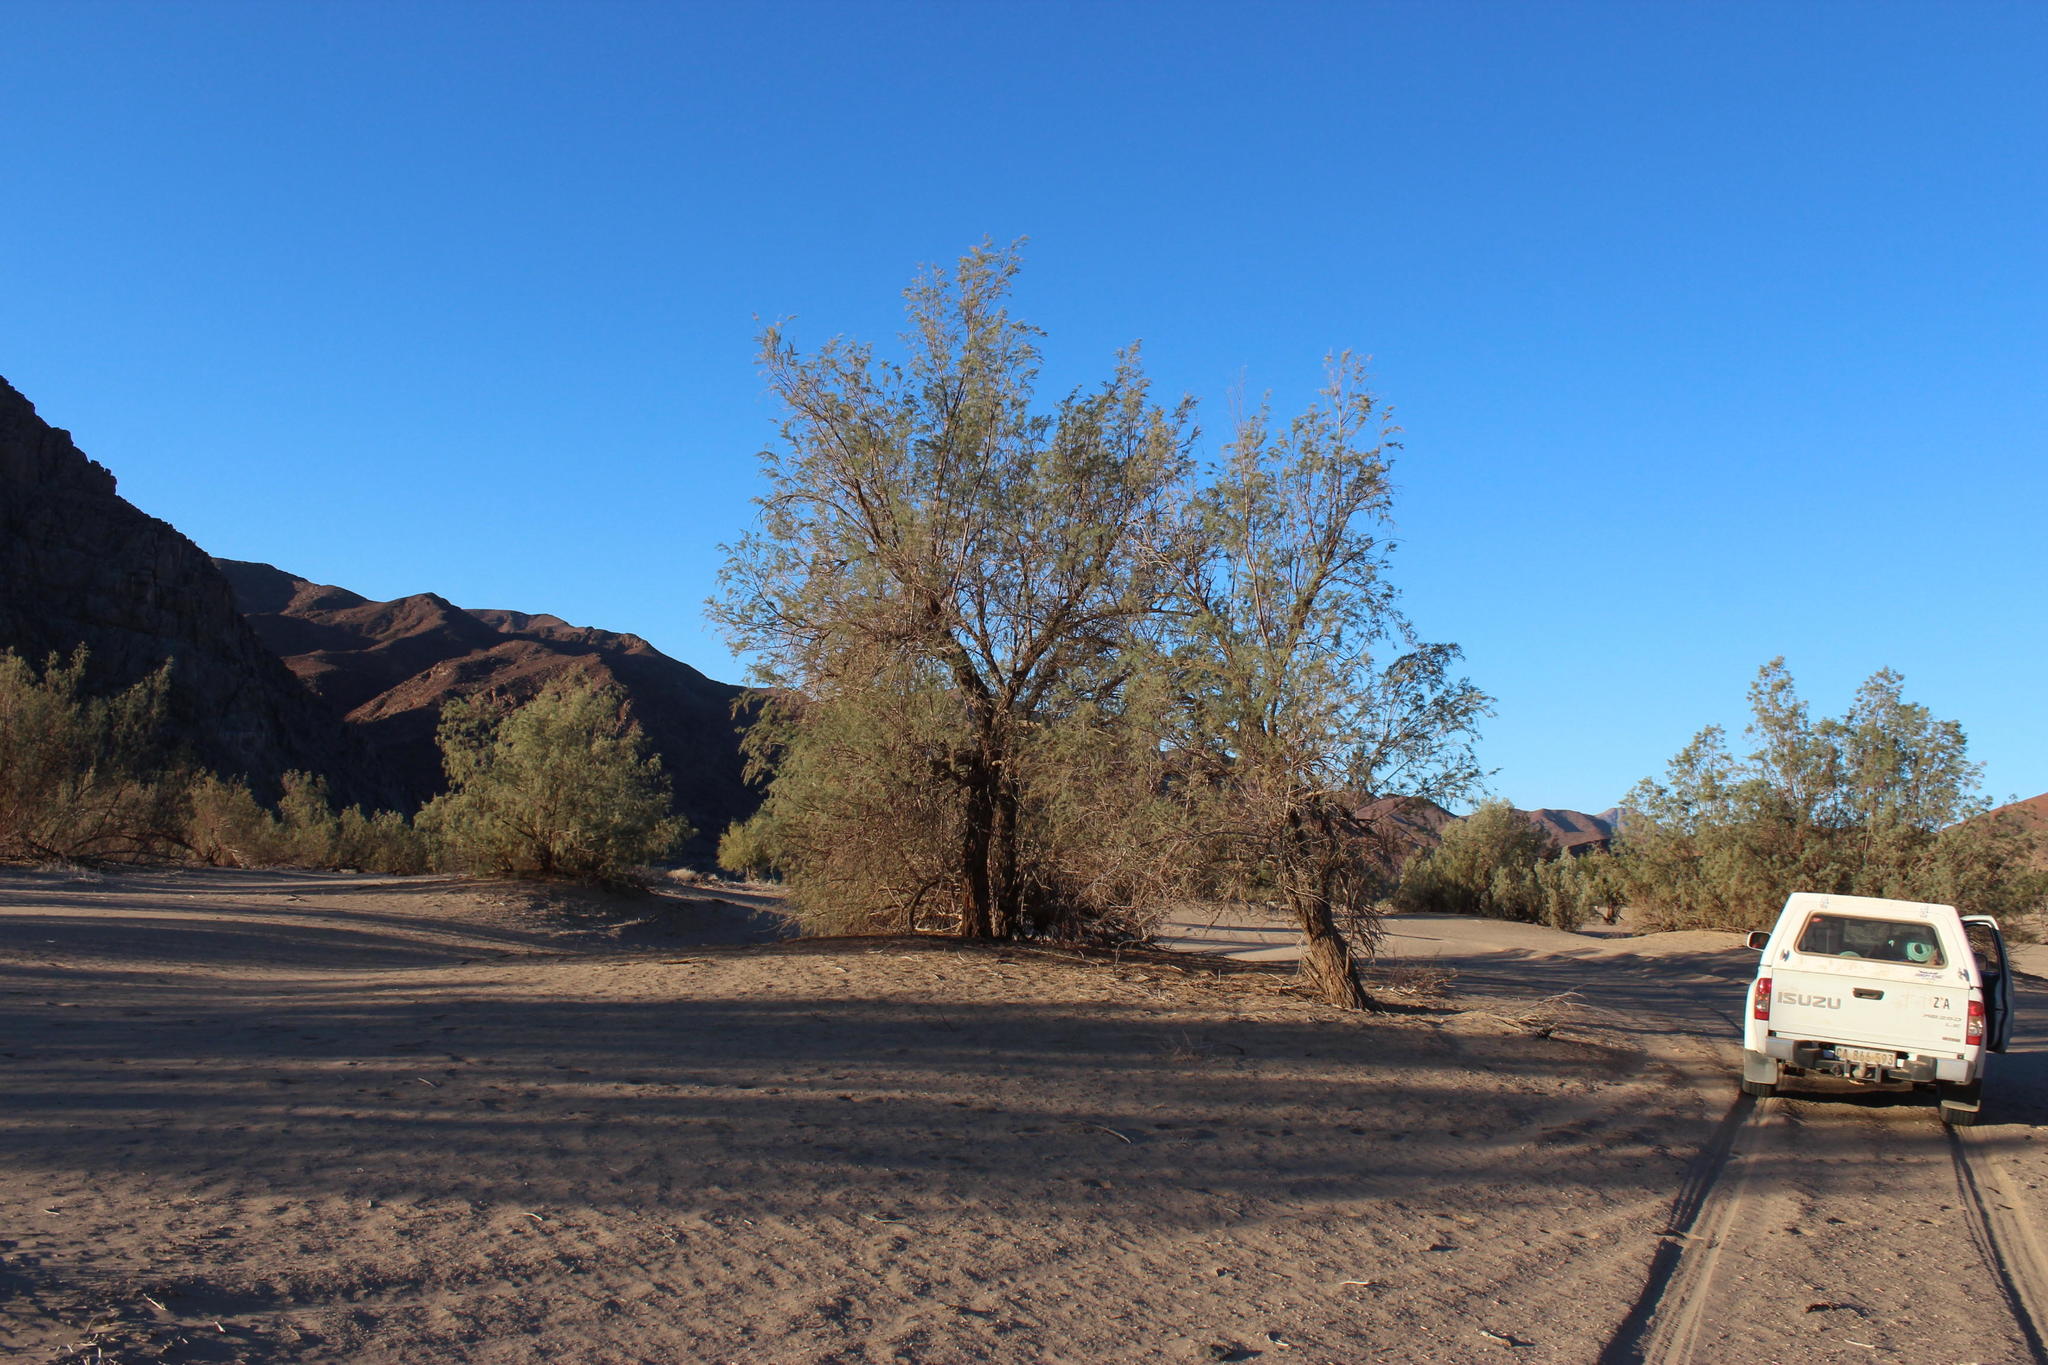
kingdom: Plantae
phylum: Tracheophyta
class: Magnoliopsida
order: Caryophyllales
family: Tamaricaceae
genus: Tamarix
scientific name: Tamarix usneoides
